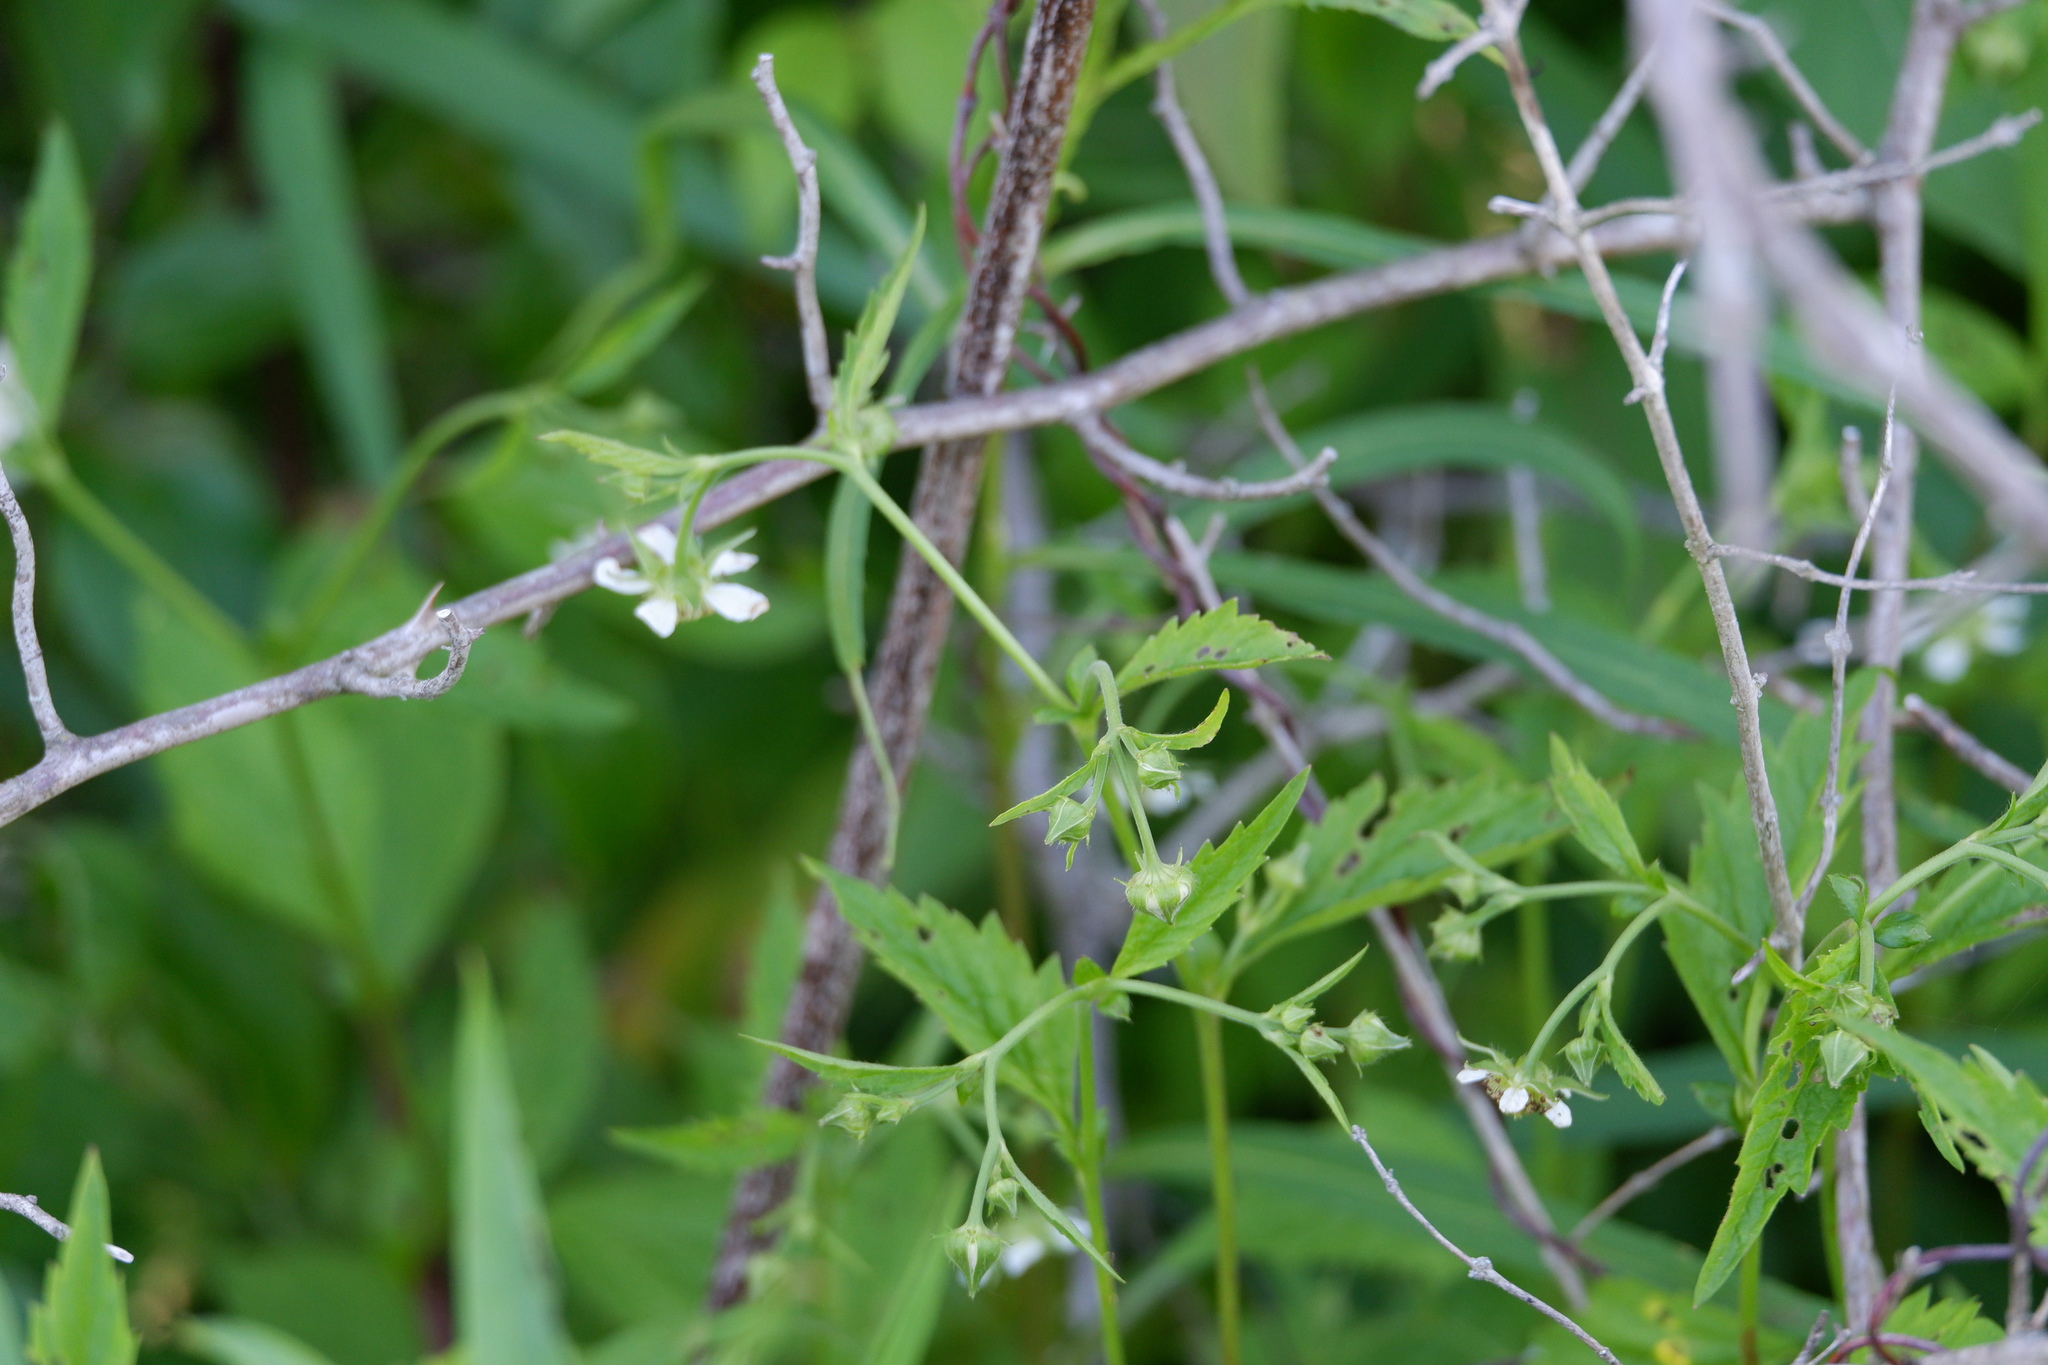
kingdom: Plantae
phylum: Tracheophyta
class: Magnoliopsida
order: Rosales
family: Rosaceae
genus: Geum
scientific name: Geum canadense
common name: White avens
